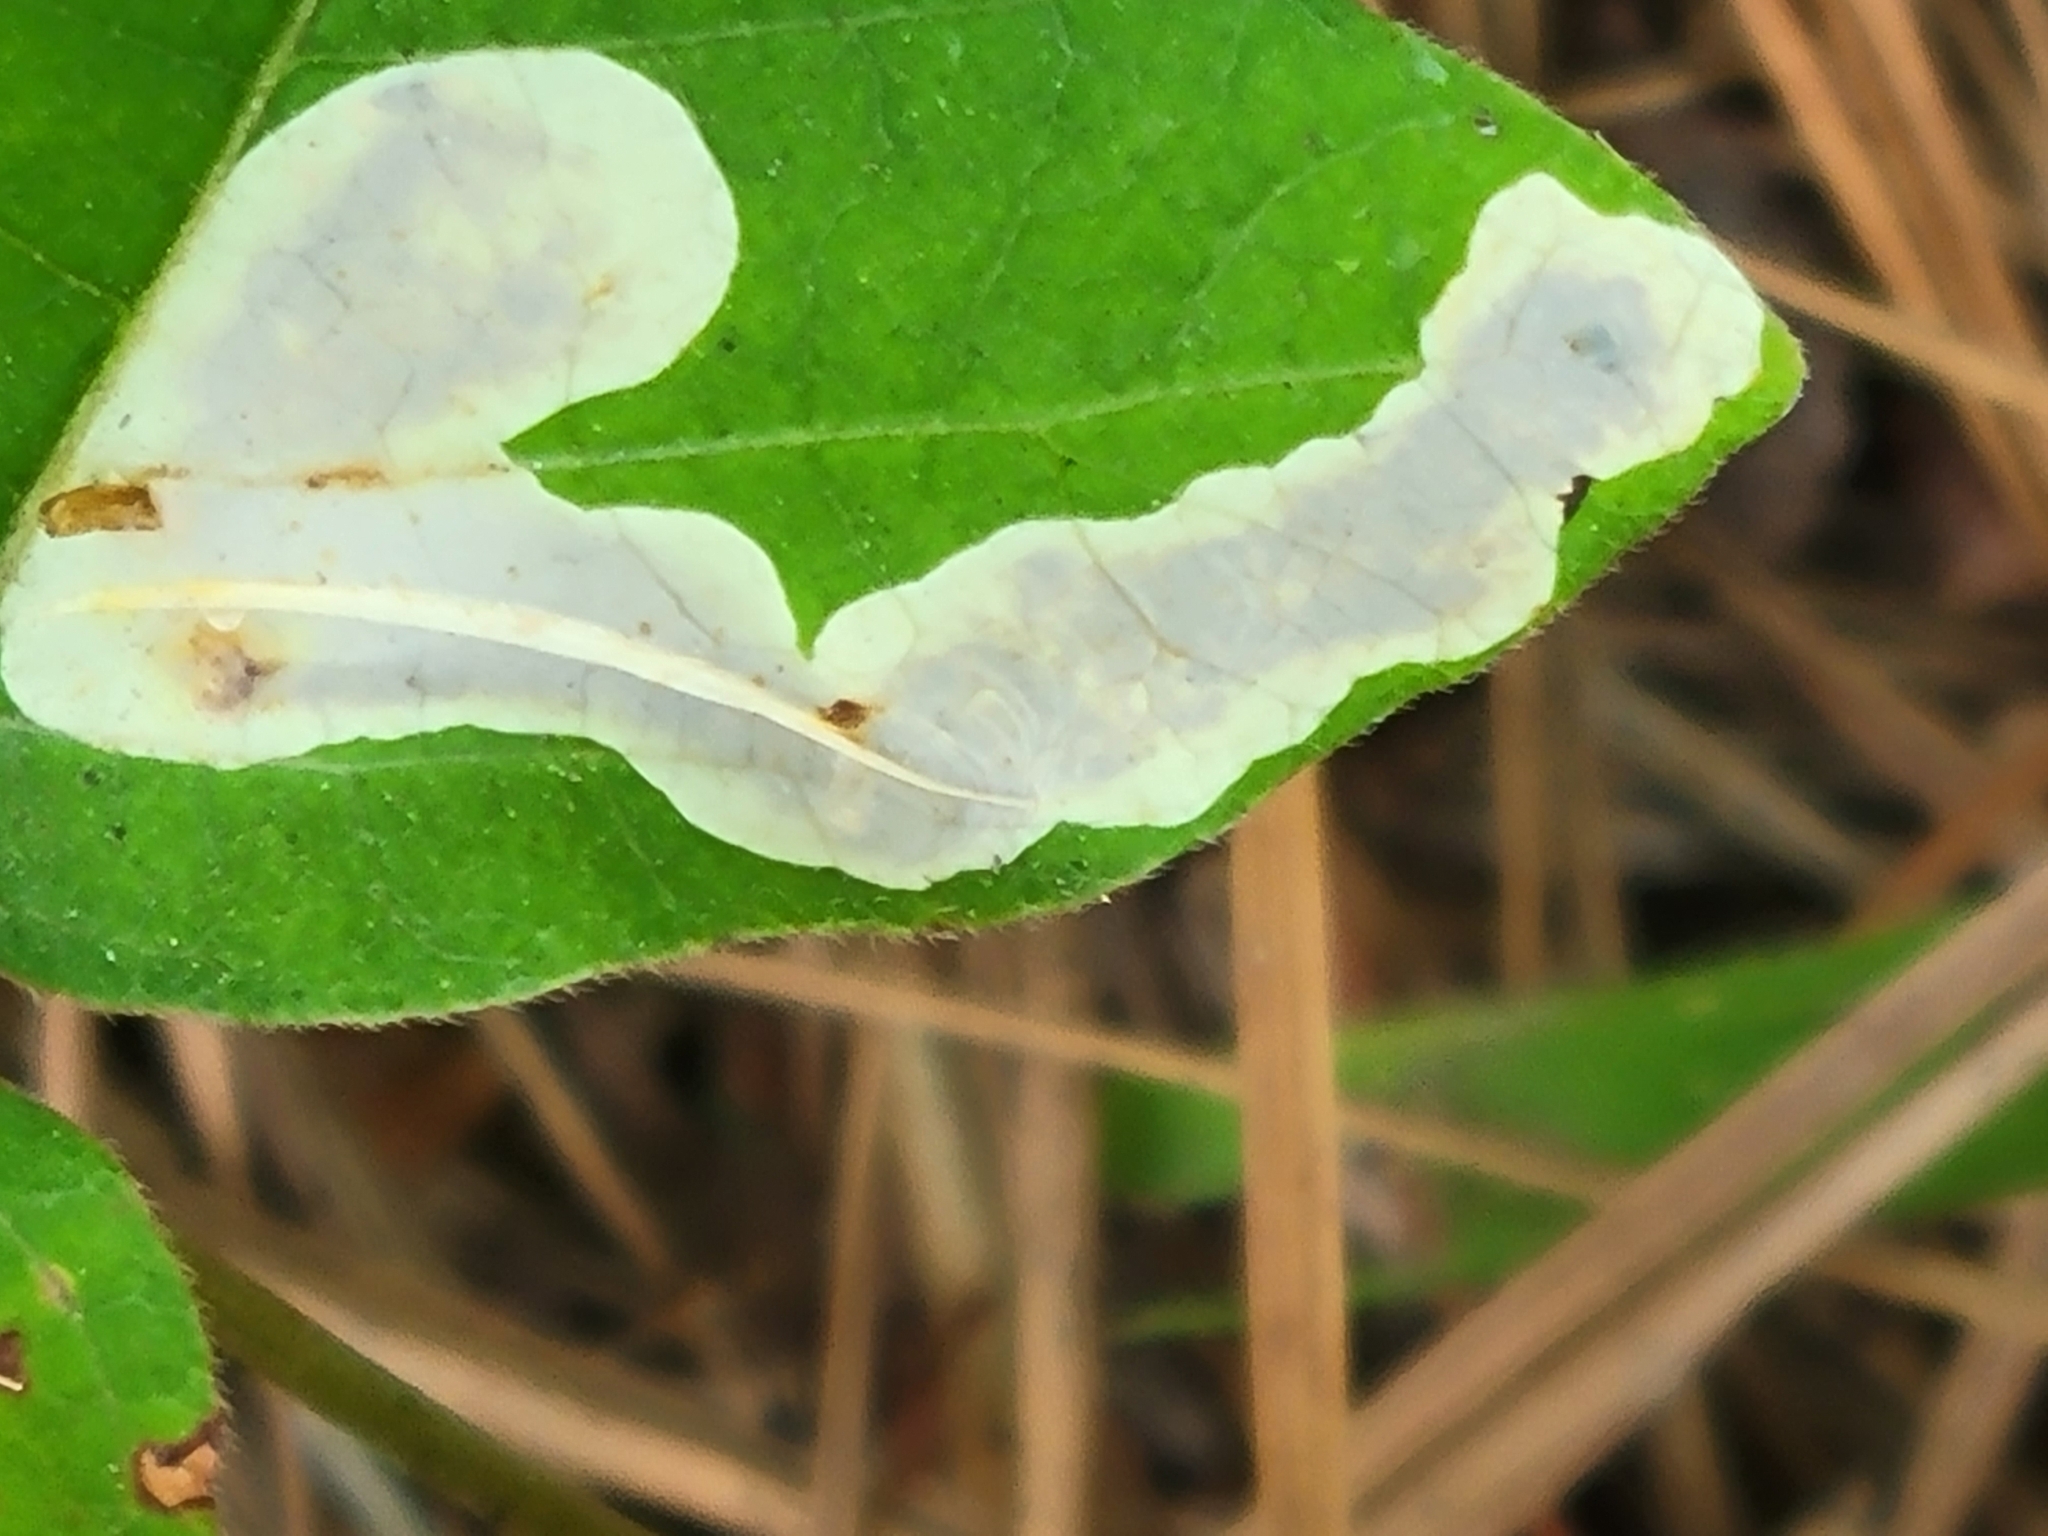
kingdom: Animalia
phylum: Arthropoda
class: Insecta
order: Lepidoptera
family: Gracillariidae
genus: Cameraria
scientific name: Cameraria guttifinitella
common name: Poison ivy leaf-miner moth
